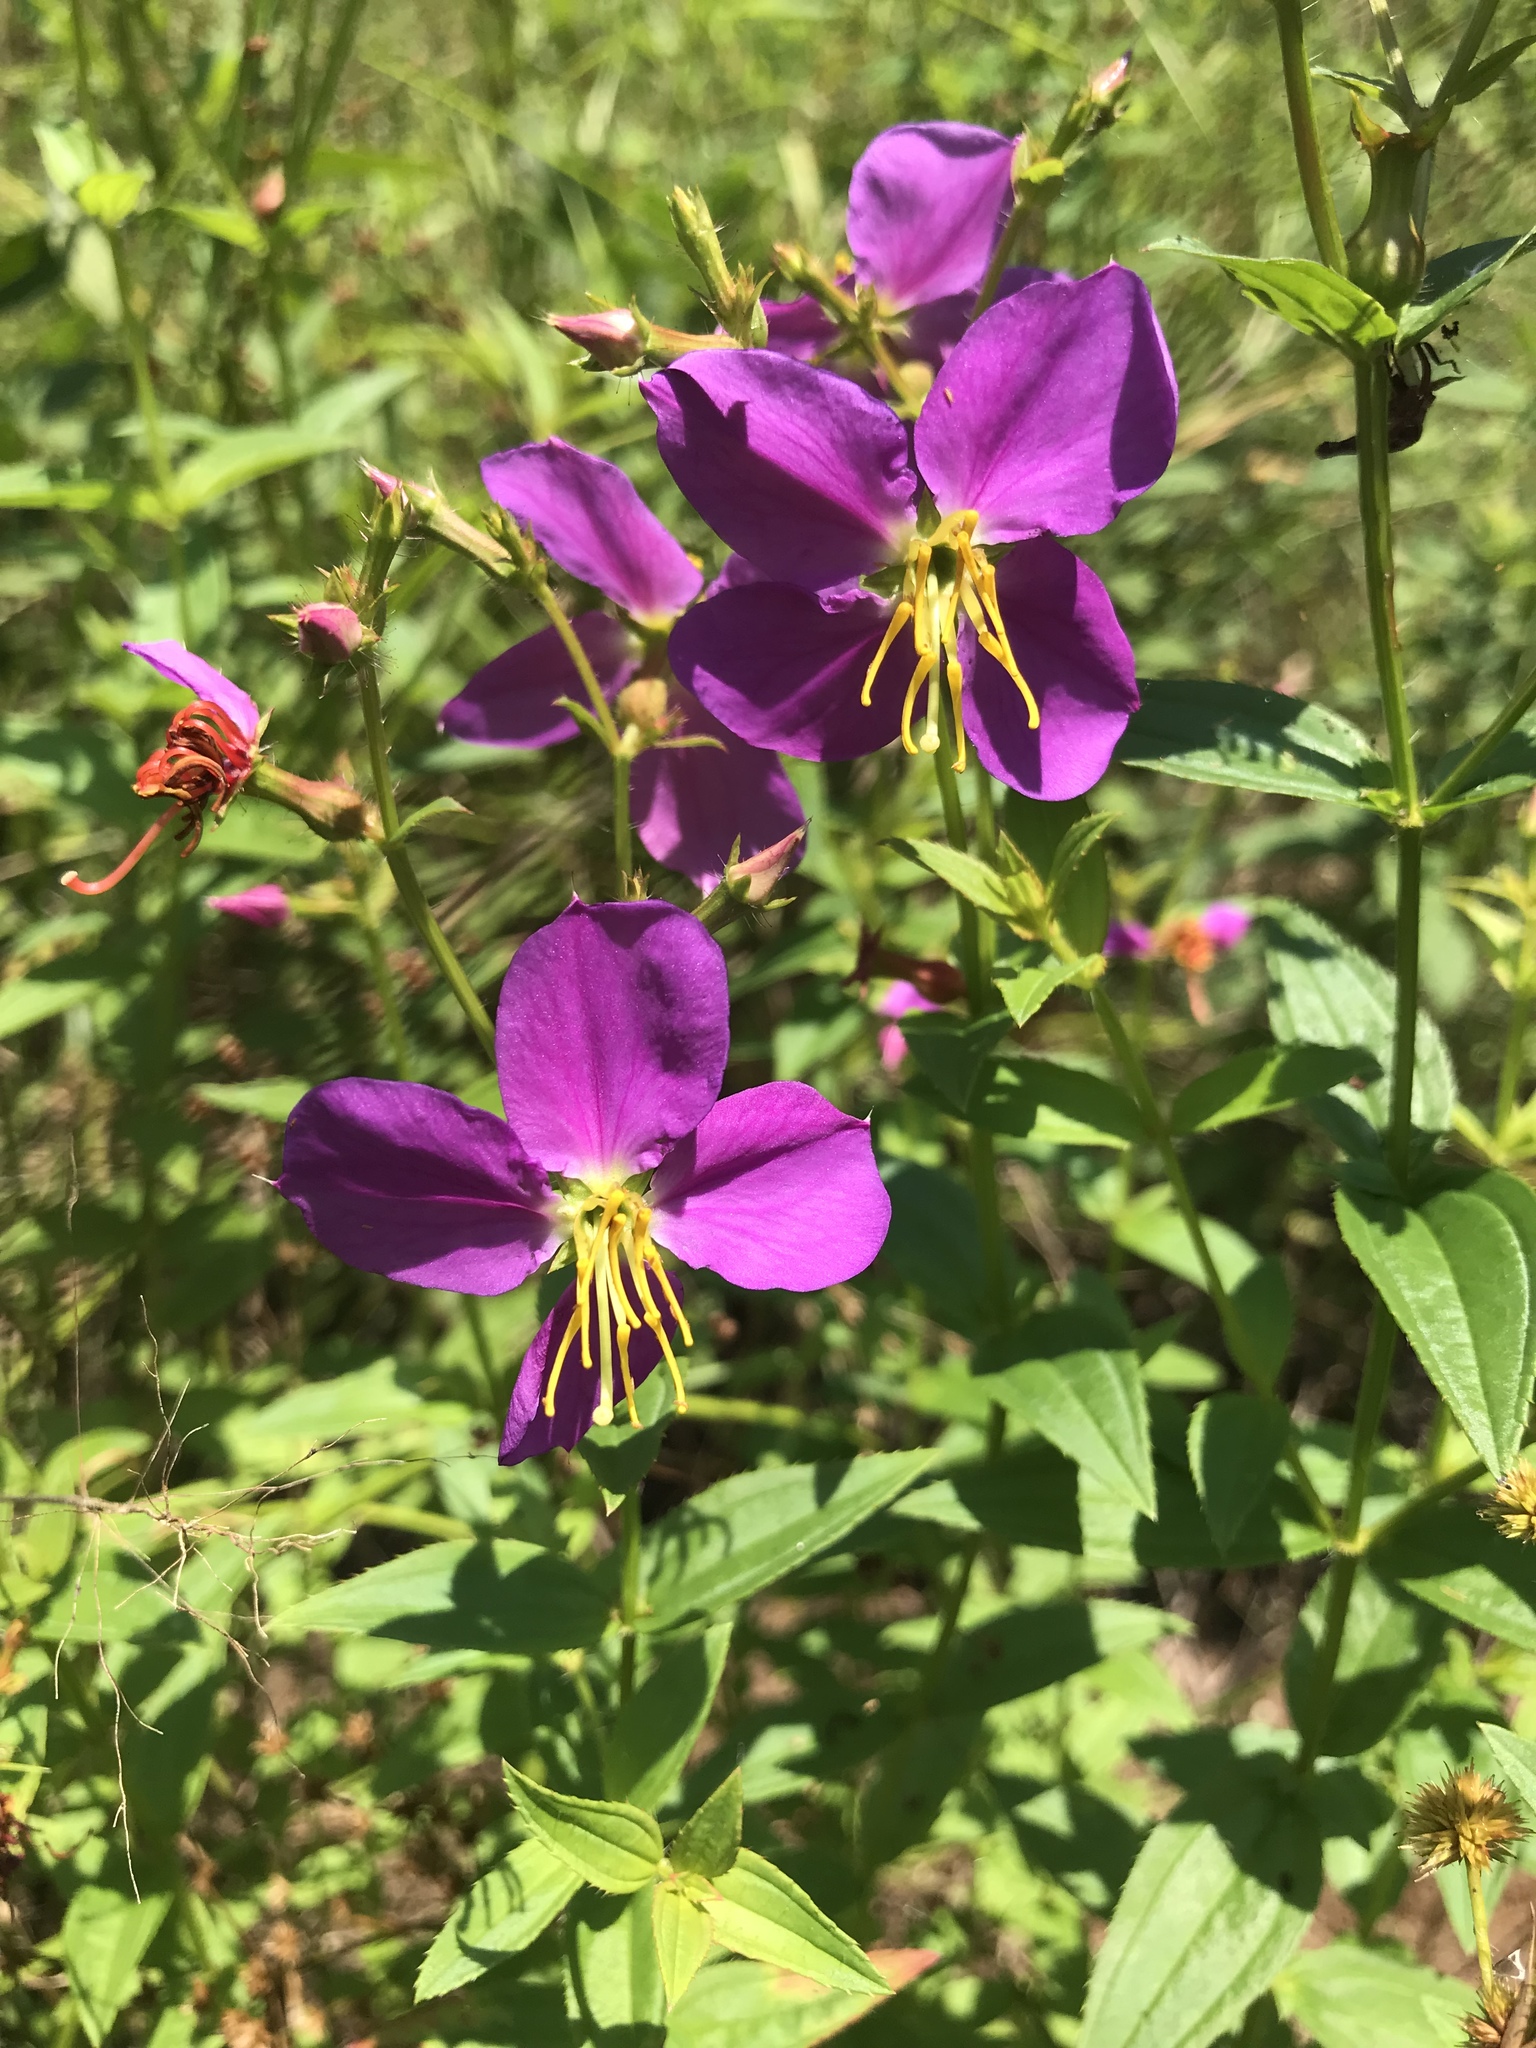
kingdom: Plantae
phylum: Tracheophyta
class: Magnoliopsida
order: Myrtales
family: Melastomataceae
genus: Rhexia
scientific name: Rhexia virginica
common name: Common meadow beauty
